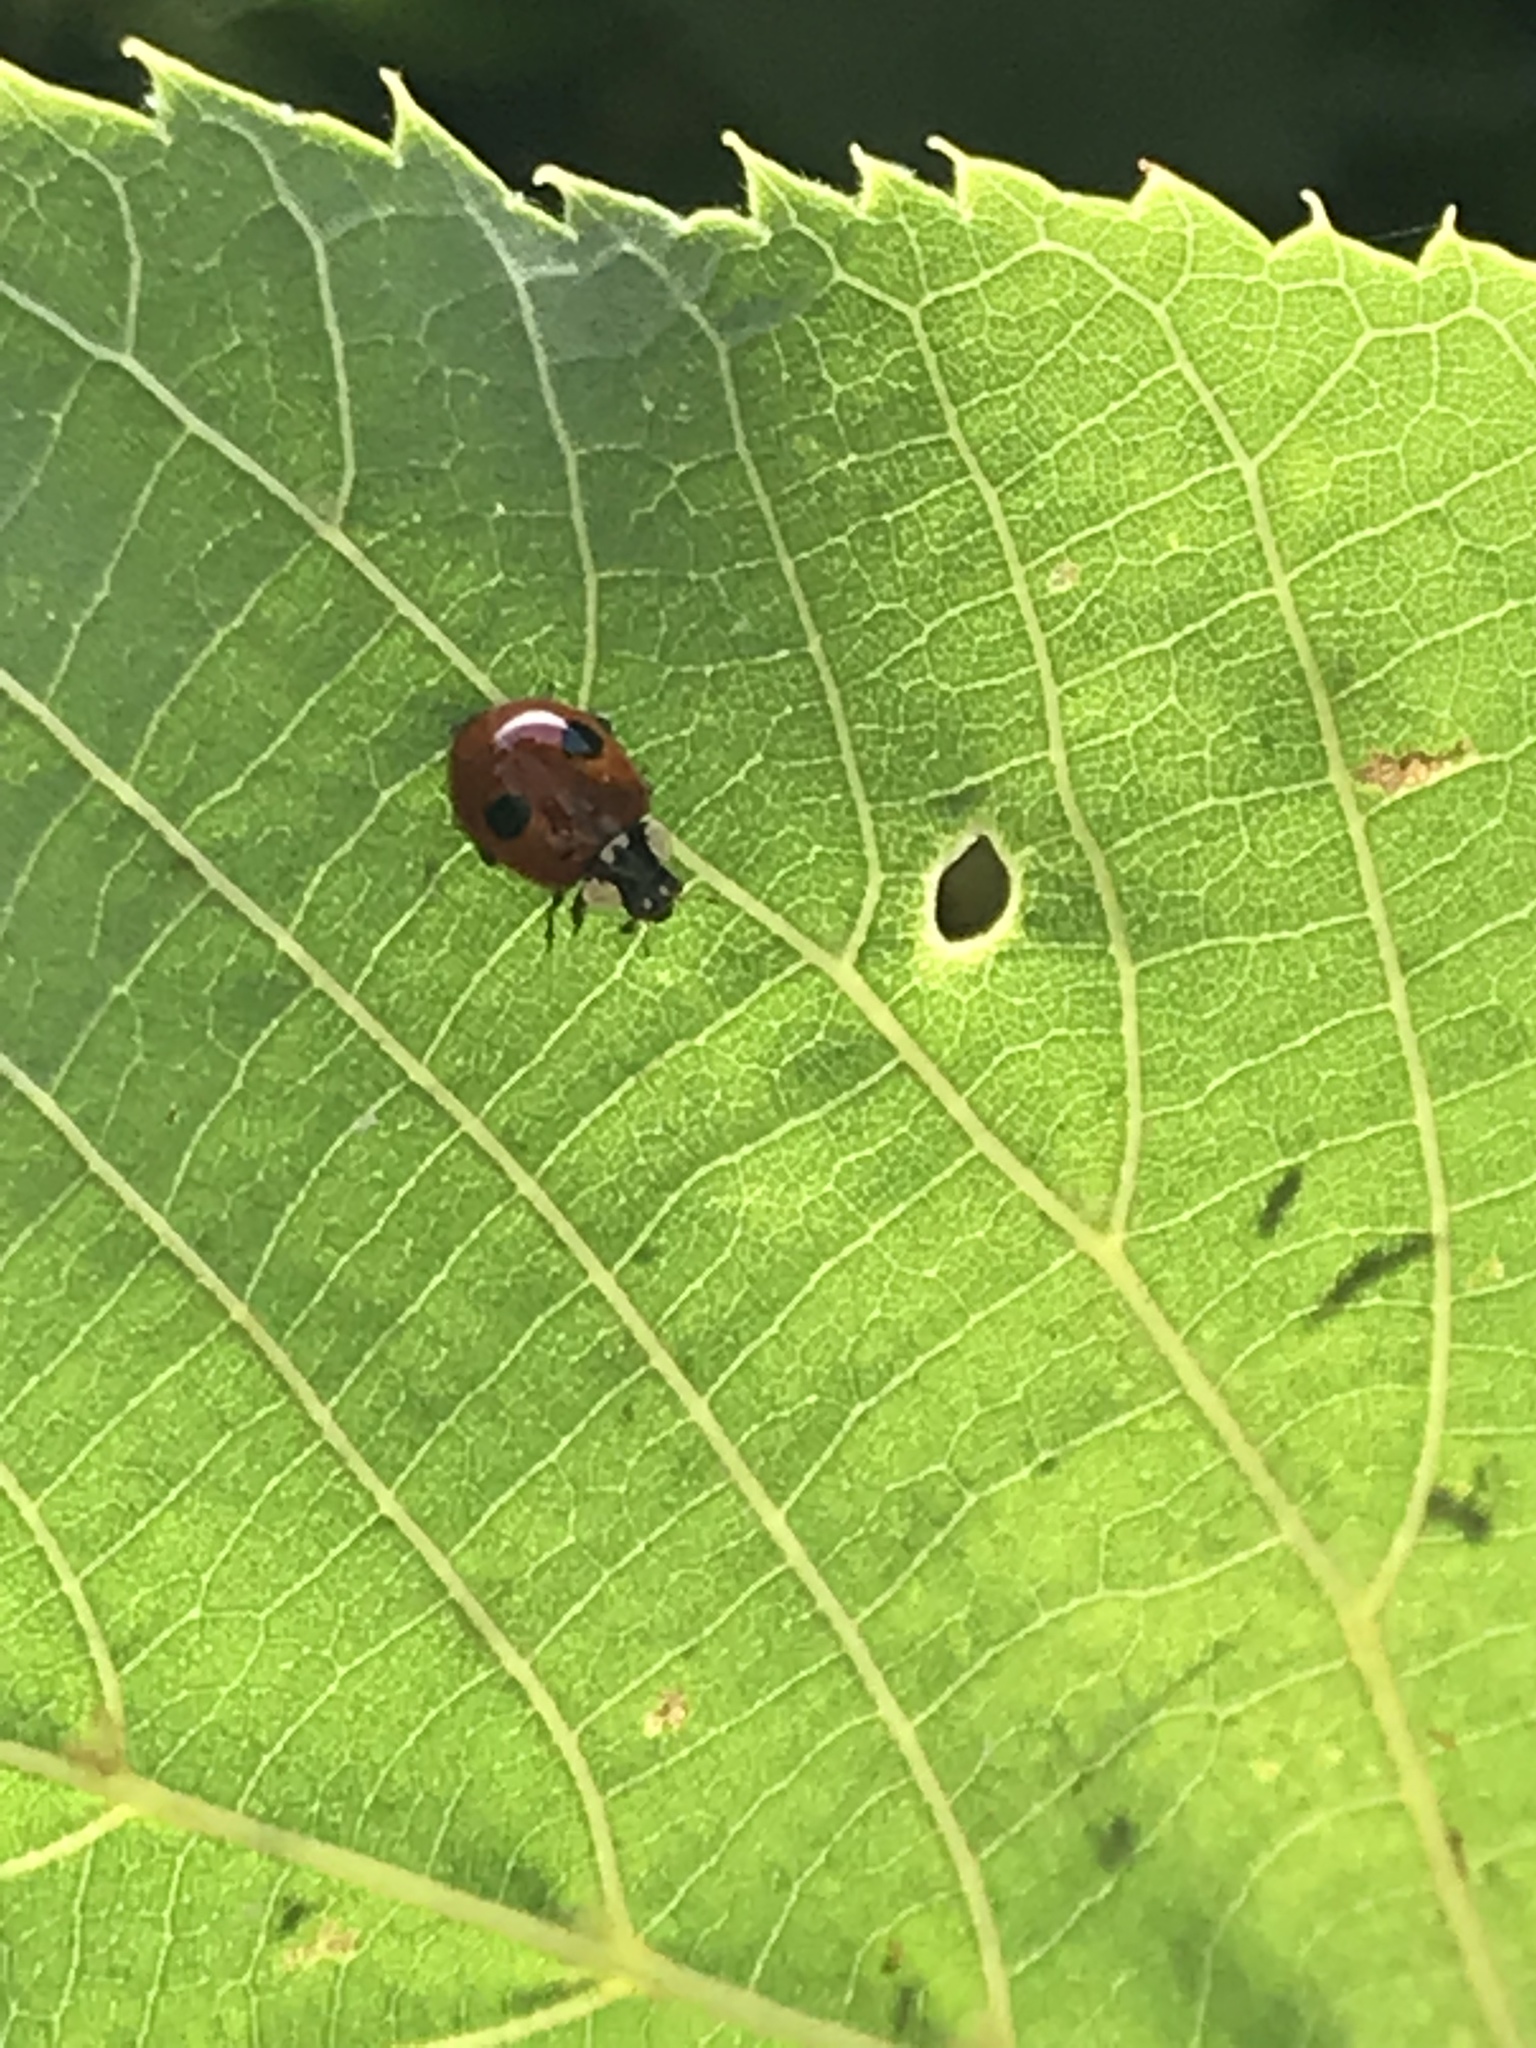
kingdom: Animalia
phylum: Arthropoda
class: Insecta
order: Coleoptera
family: Coccinellidae
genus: Adalia
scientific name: Adalia bipunctata
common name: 2-spot ladybird
